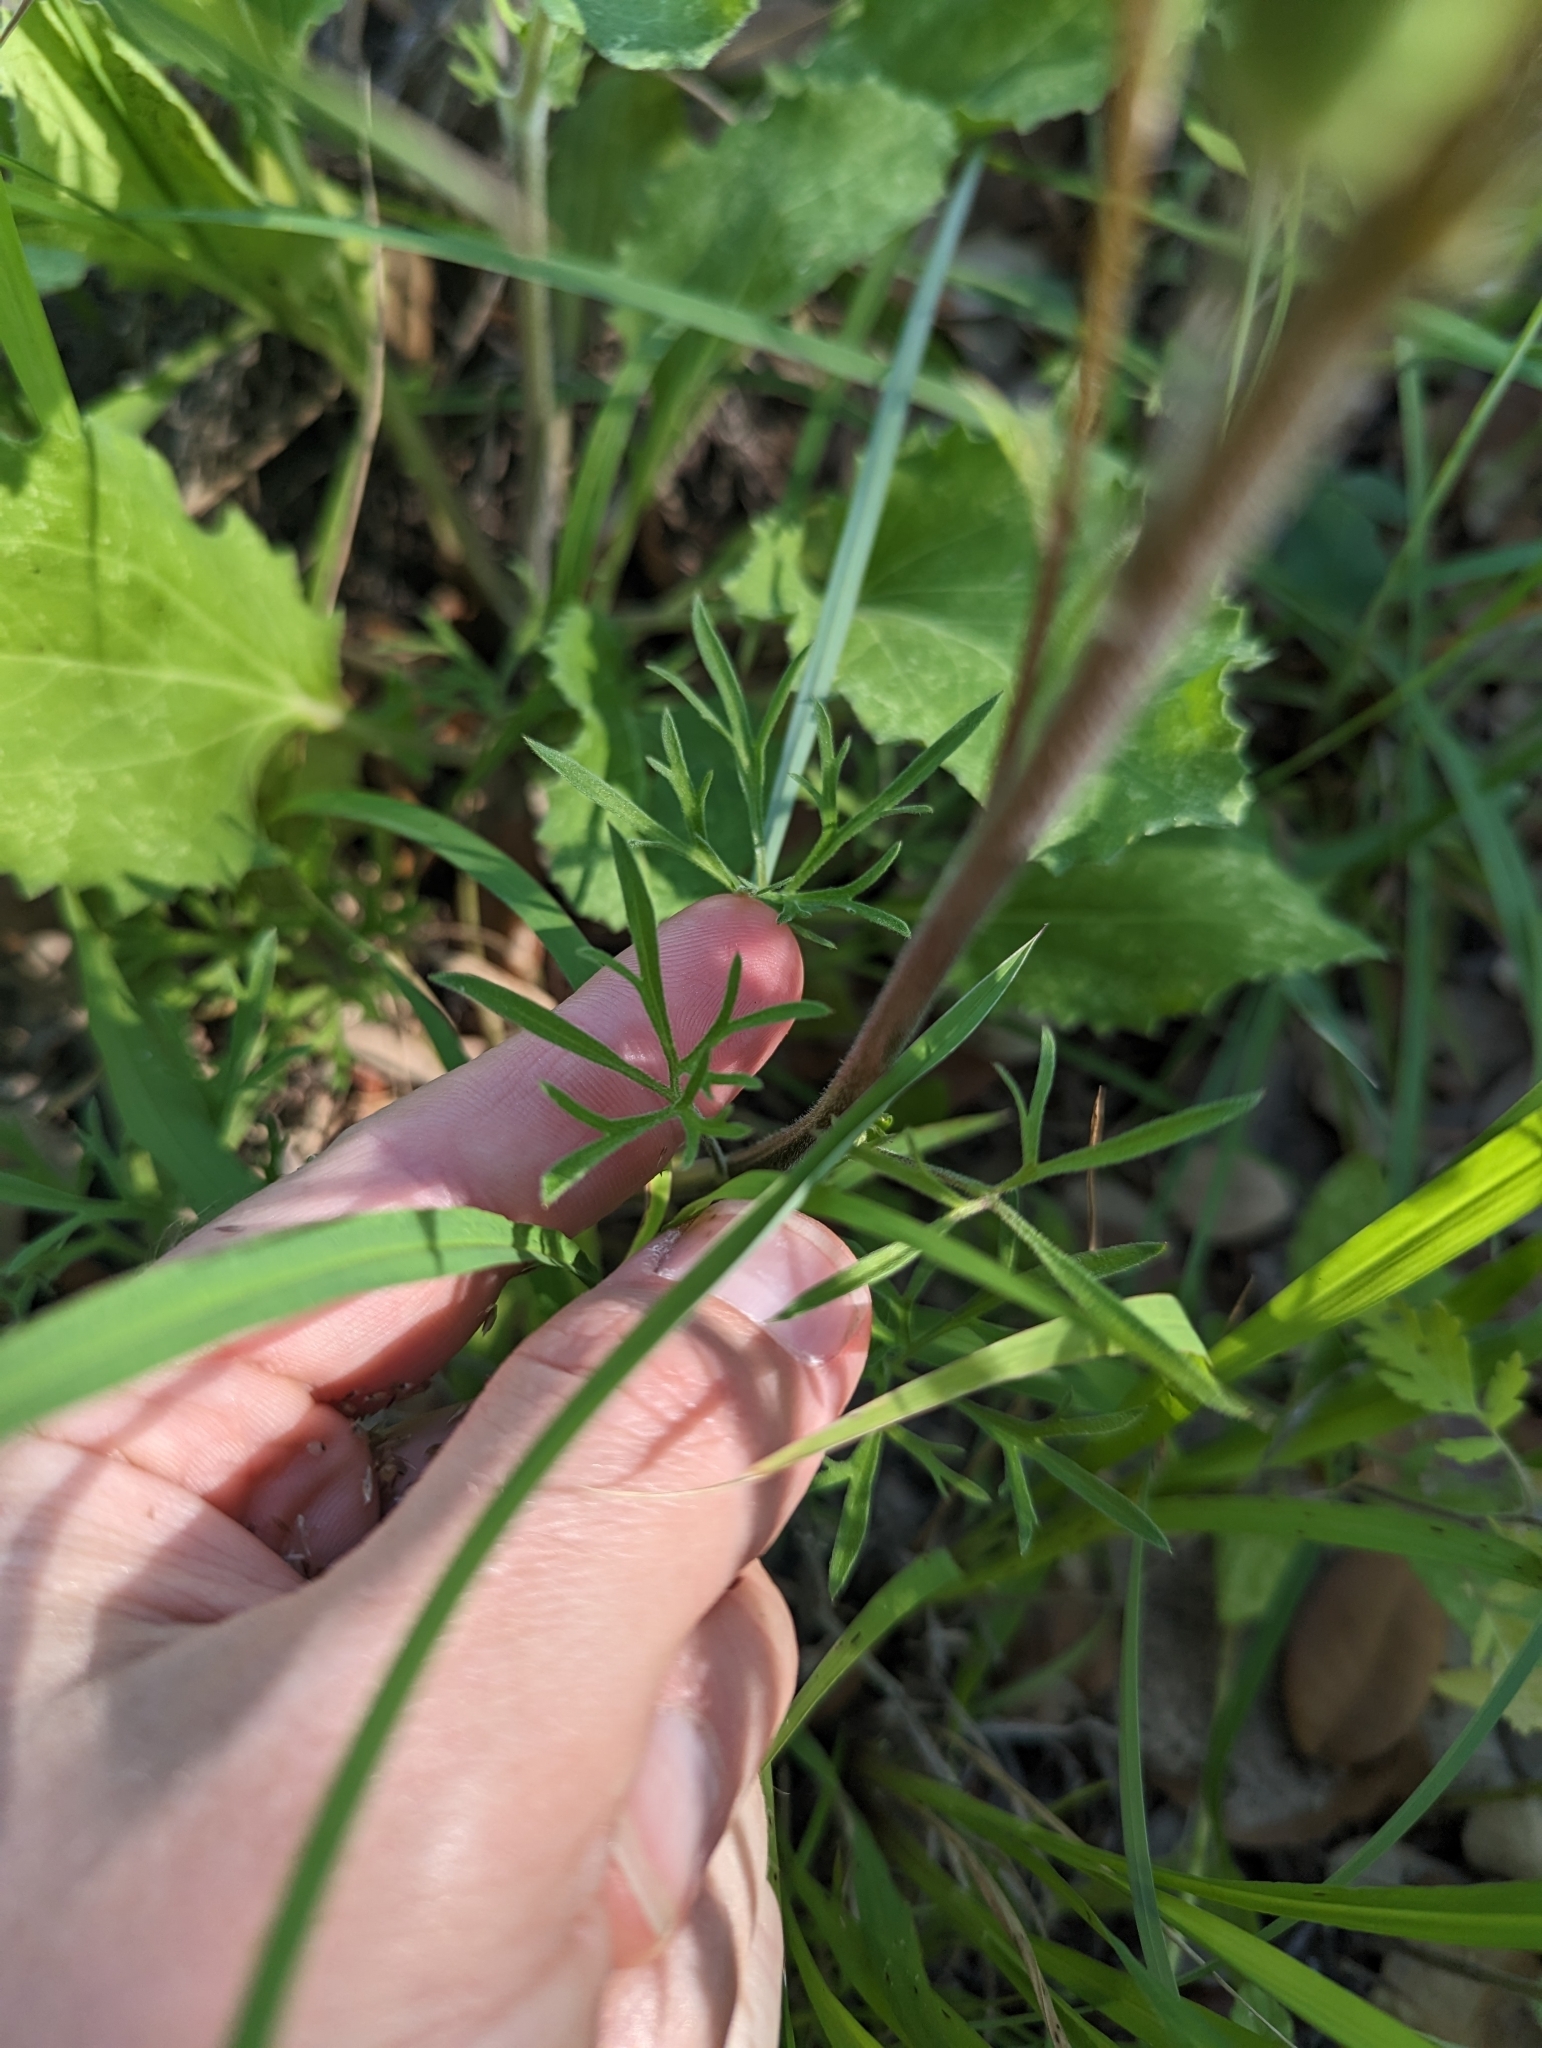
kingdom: Plantae
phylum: Tracheophyta
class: Magnoliopsida
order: Ranunculales
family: Ranunculaceae
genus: Delphinium
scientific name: Delphinium carolinianum
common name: Carolina larkspur
